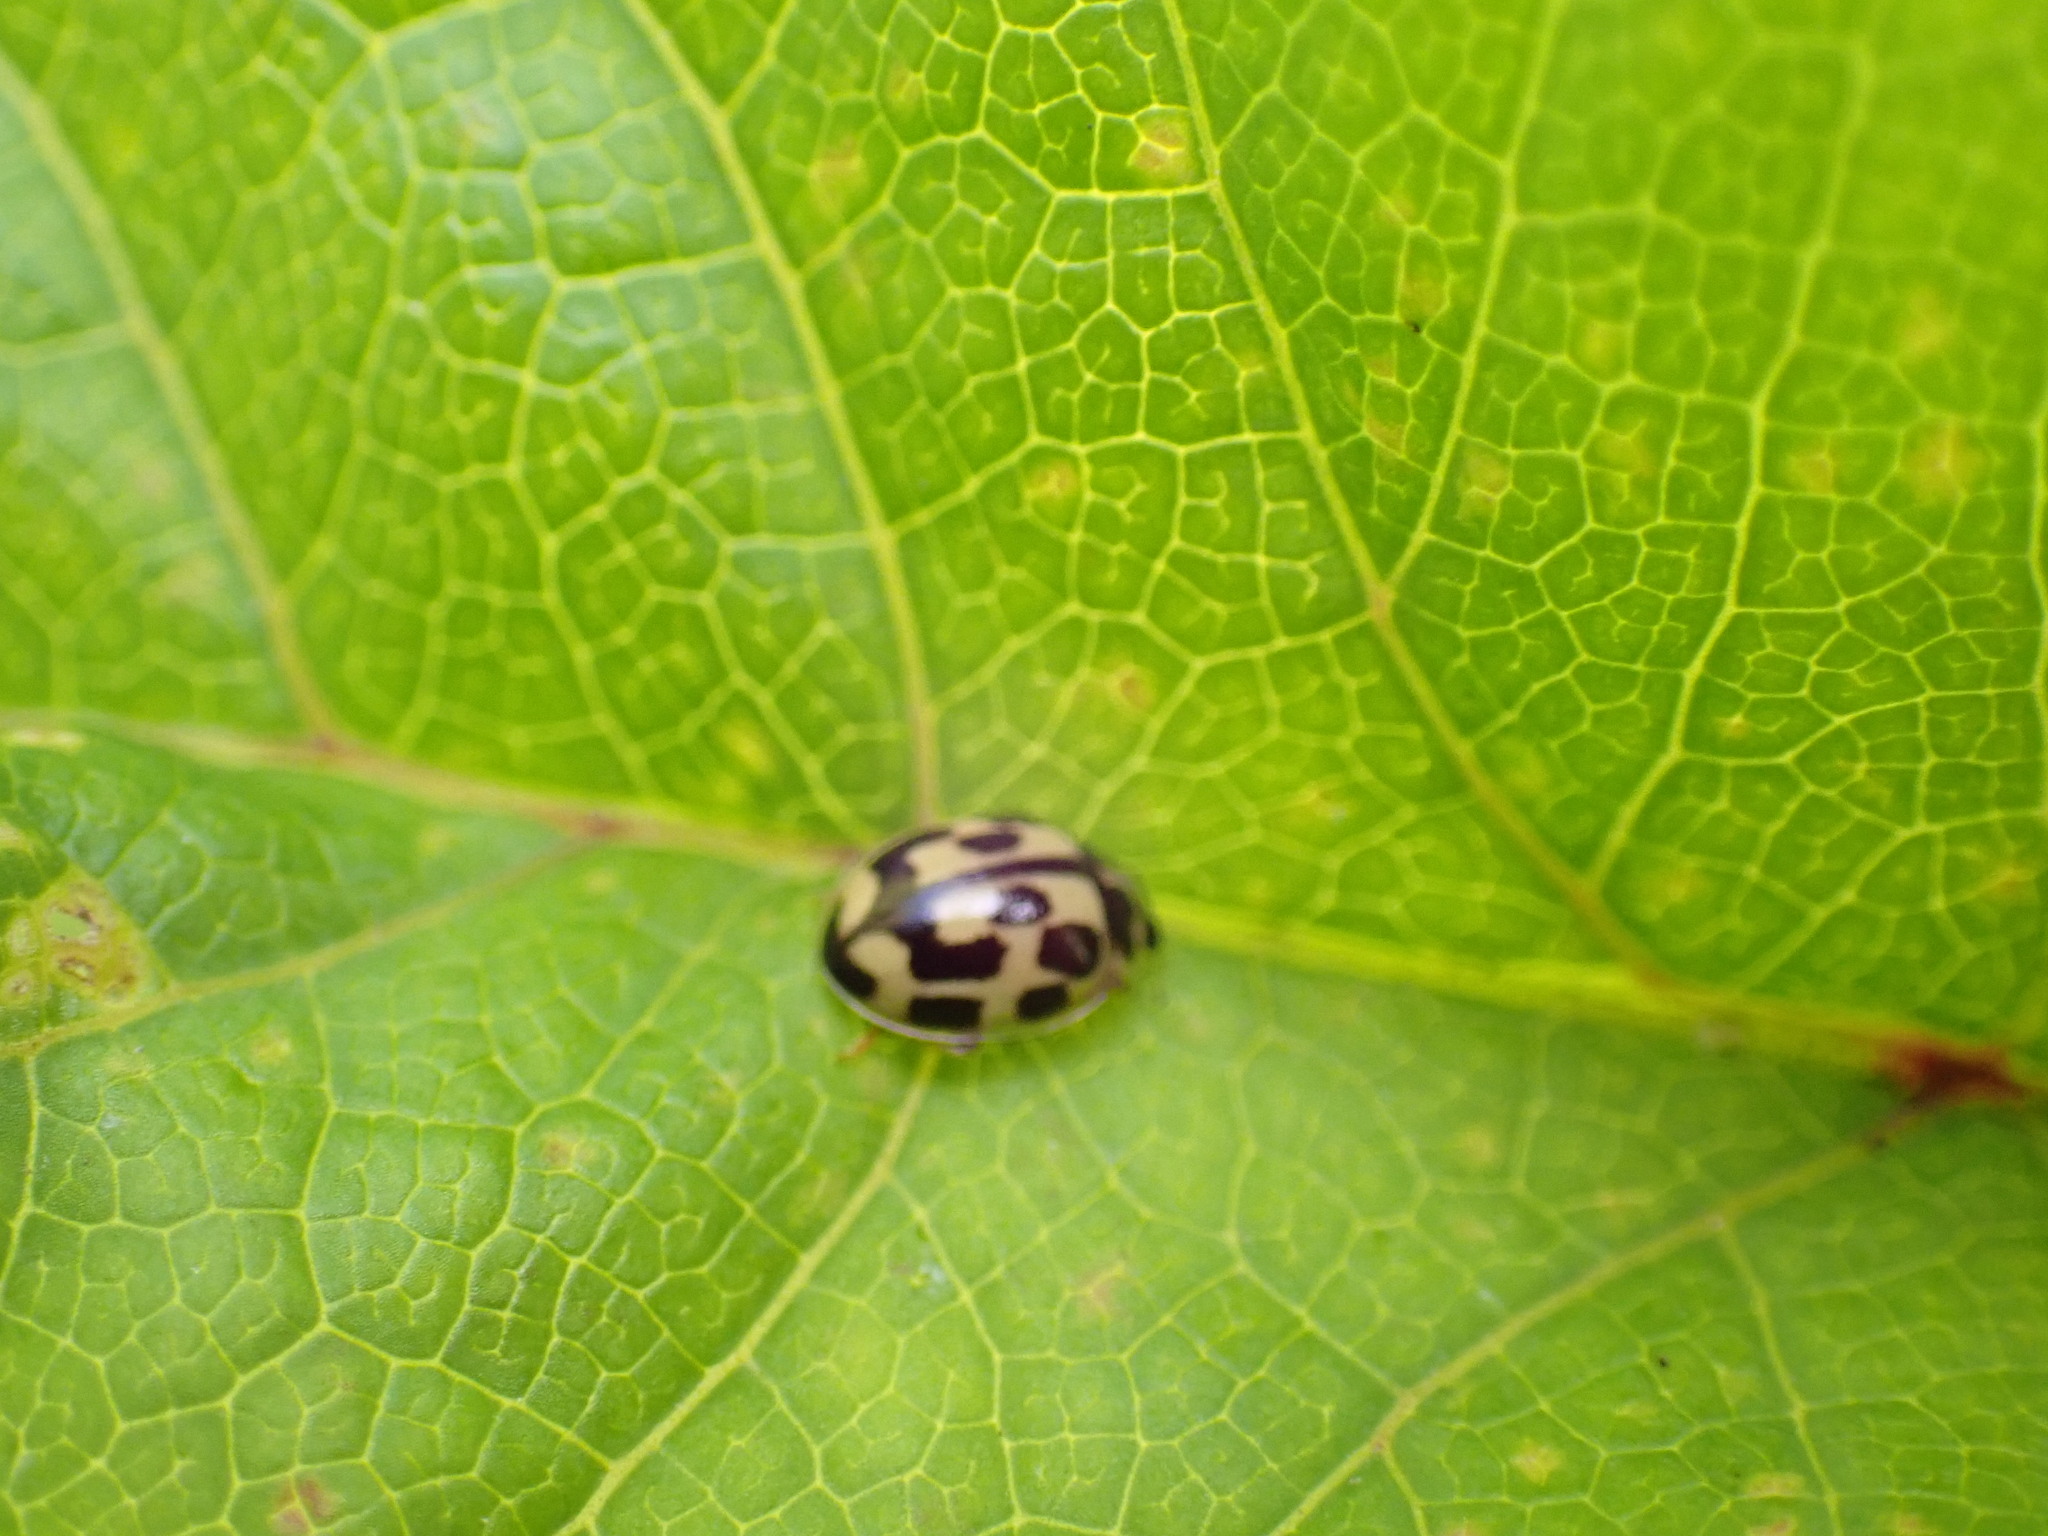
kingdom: Animalia
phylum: Arthropoda
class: Insecta
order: Coleoptera
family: Coccinellidae
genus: Propylaea
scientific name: Propylaea quatuordecimpunctata
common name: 14-spotted ladybird beetle
